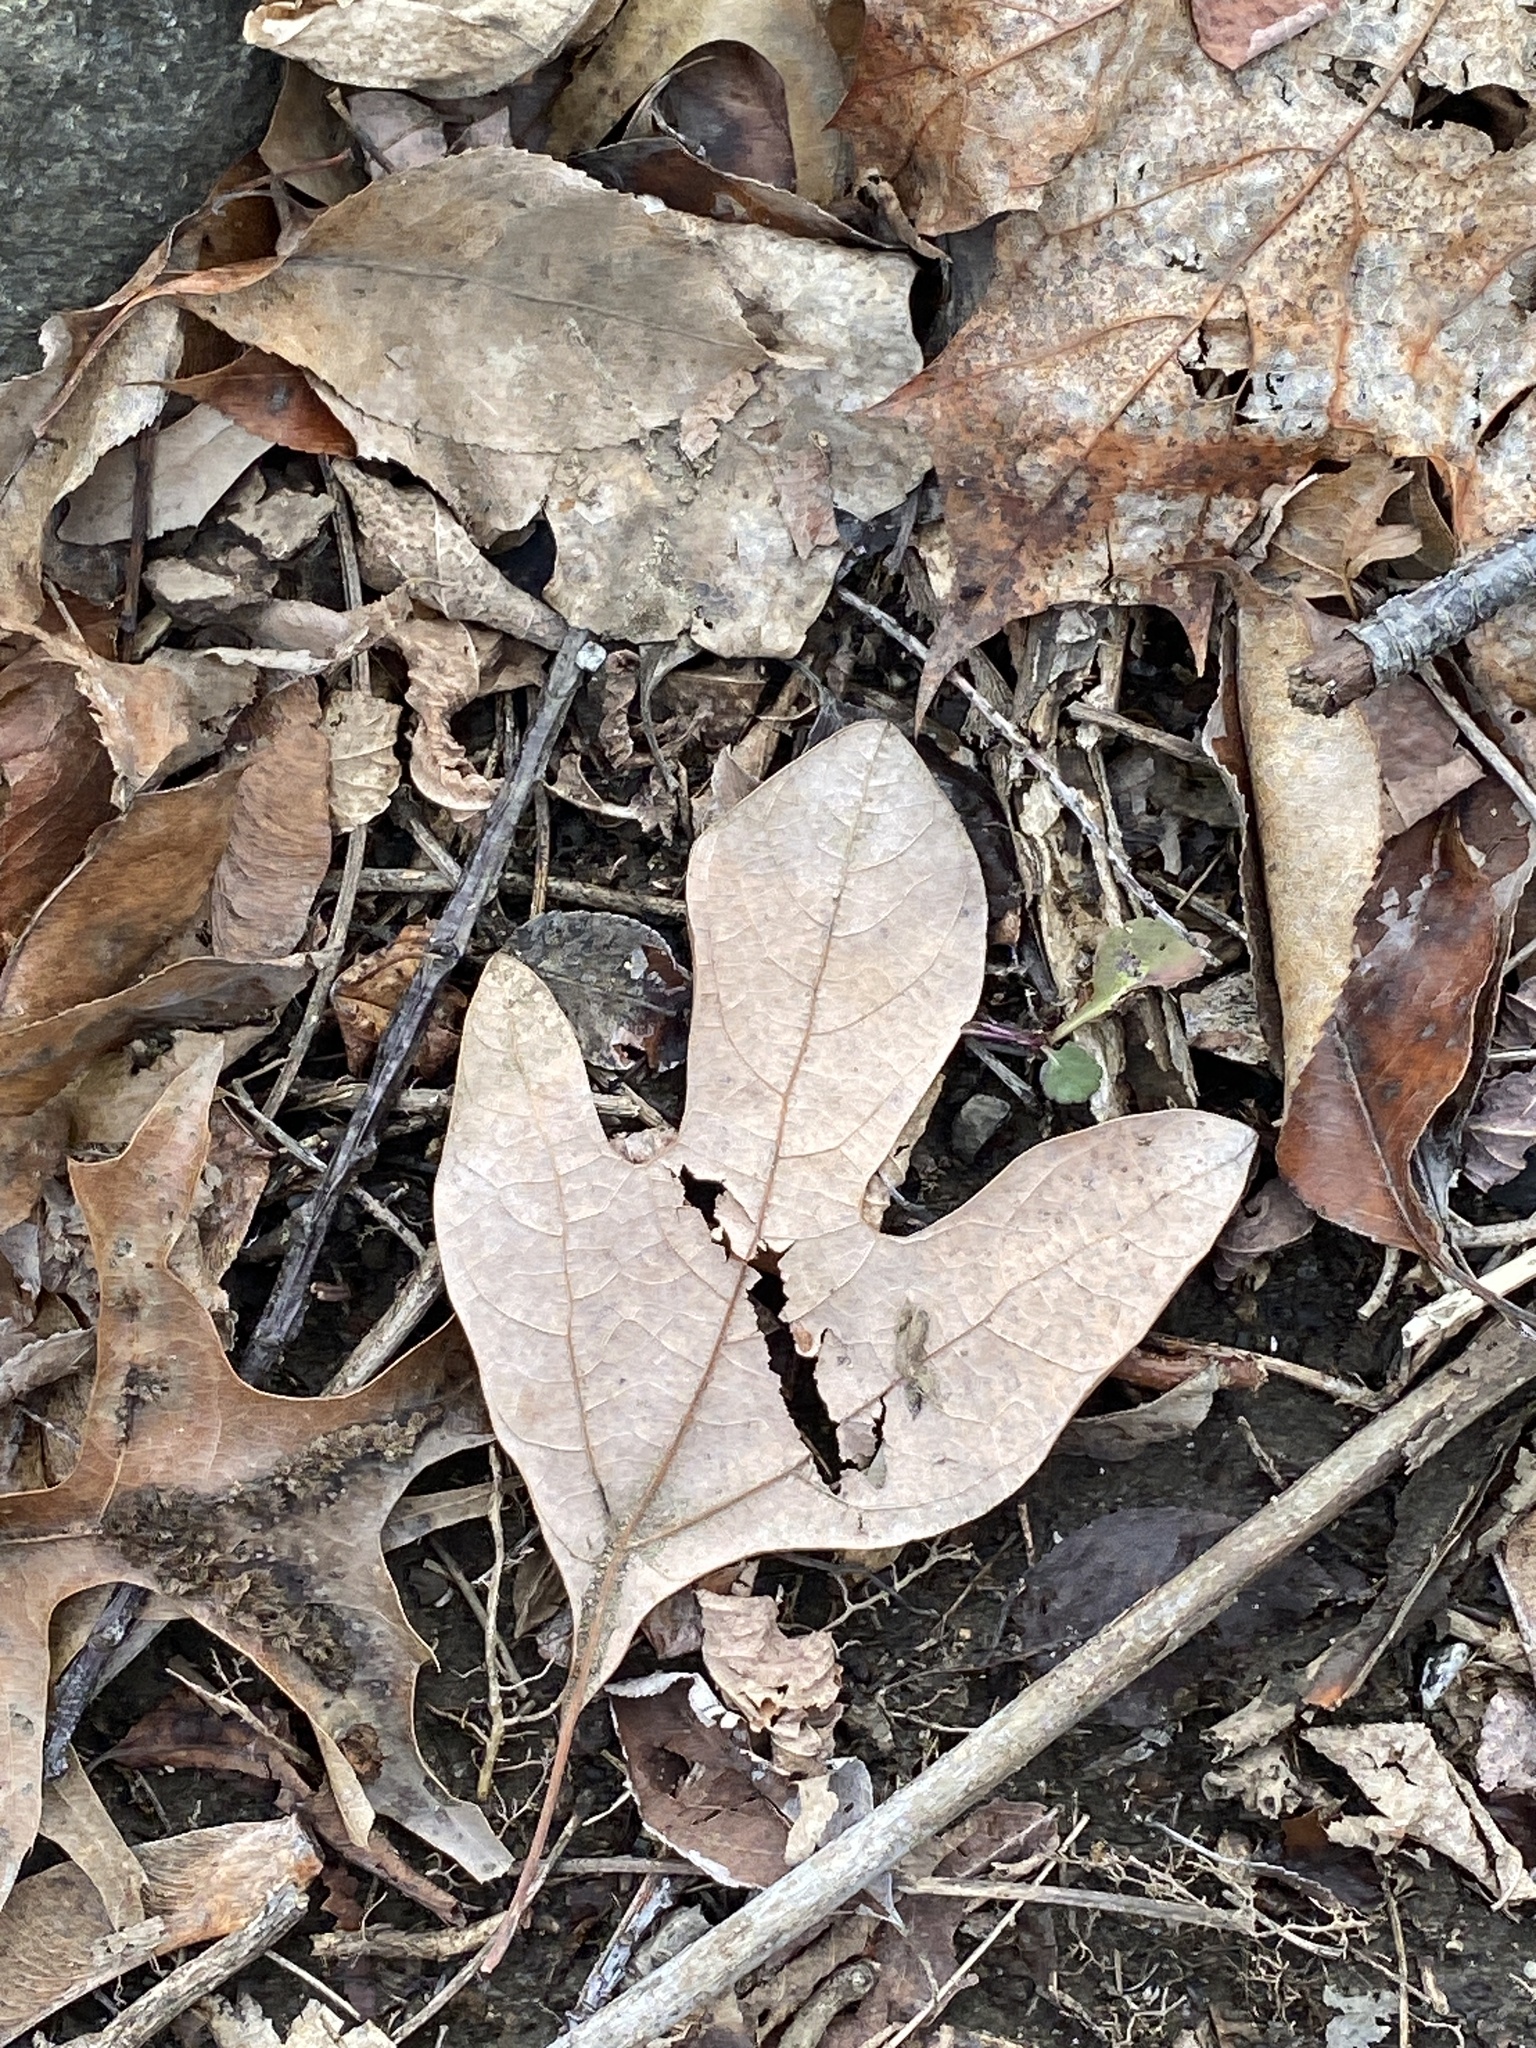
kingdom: Plantae
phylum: Tracheophyta
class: Magnoliopsida
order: Laurales
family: Lauraceae
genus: Sassafras
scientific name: Sassafras albidum
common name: Sassafras
